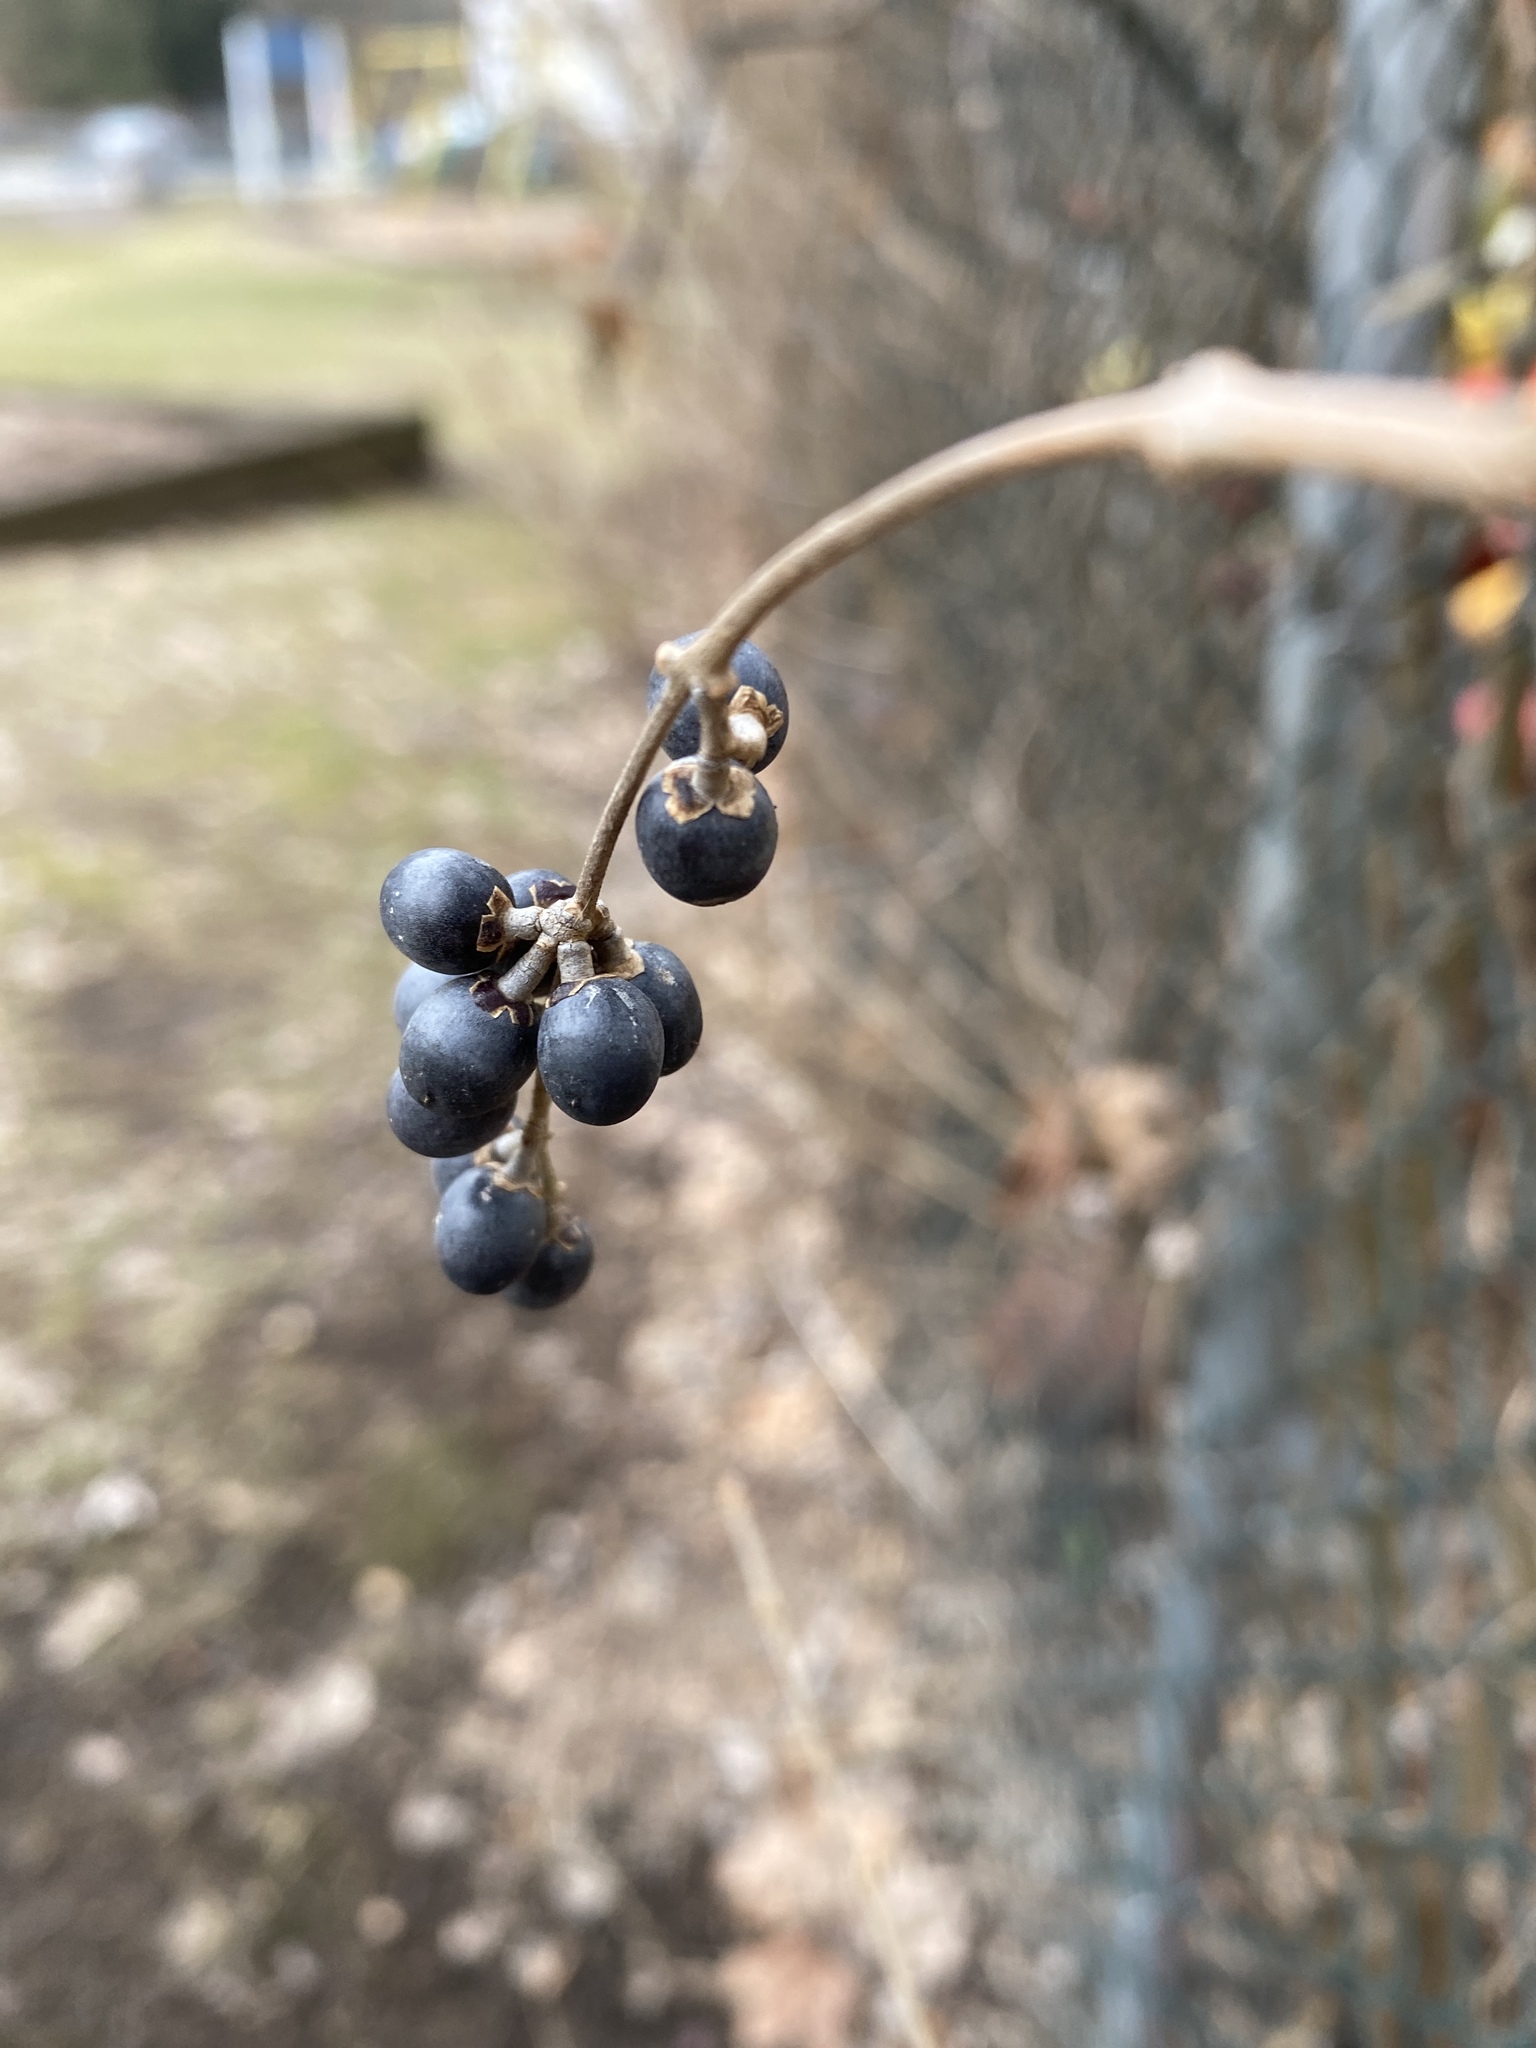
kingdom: Plantae
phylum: Tracheophyta
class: Magnoliopsida
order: Lamiales
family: Oleaceae
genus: Ligustrum
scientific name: Ligustrum ovalifolium
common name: California privet
